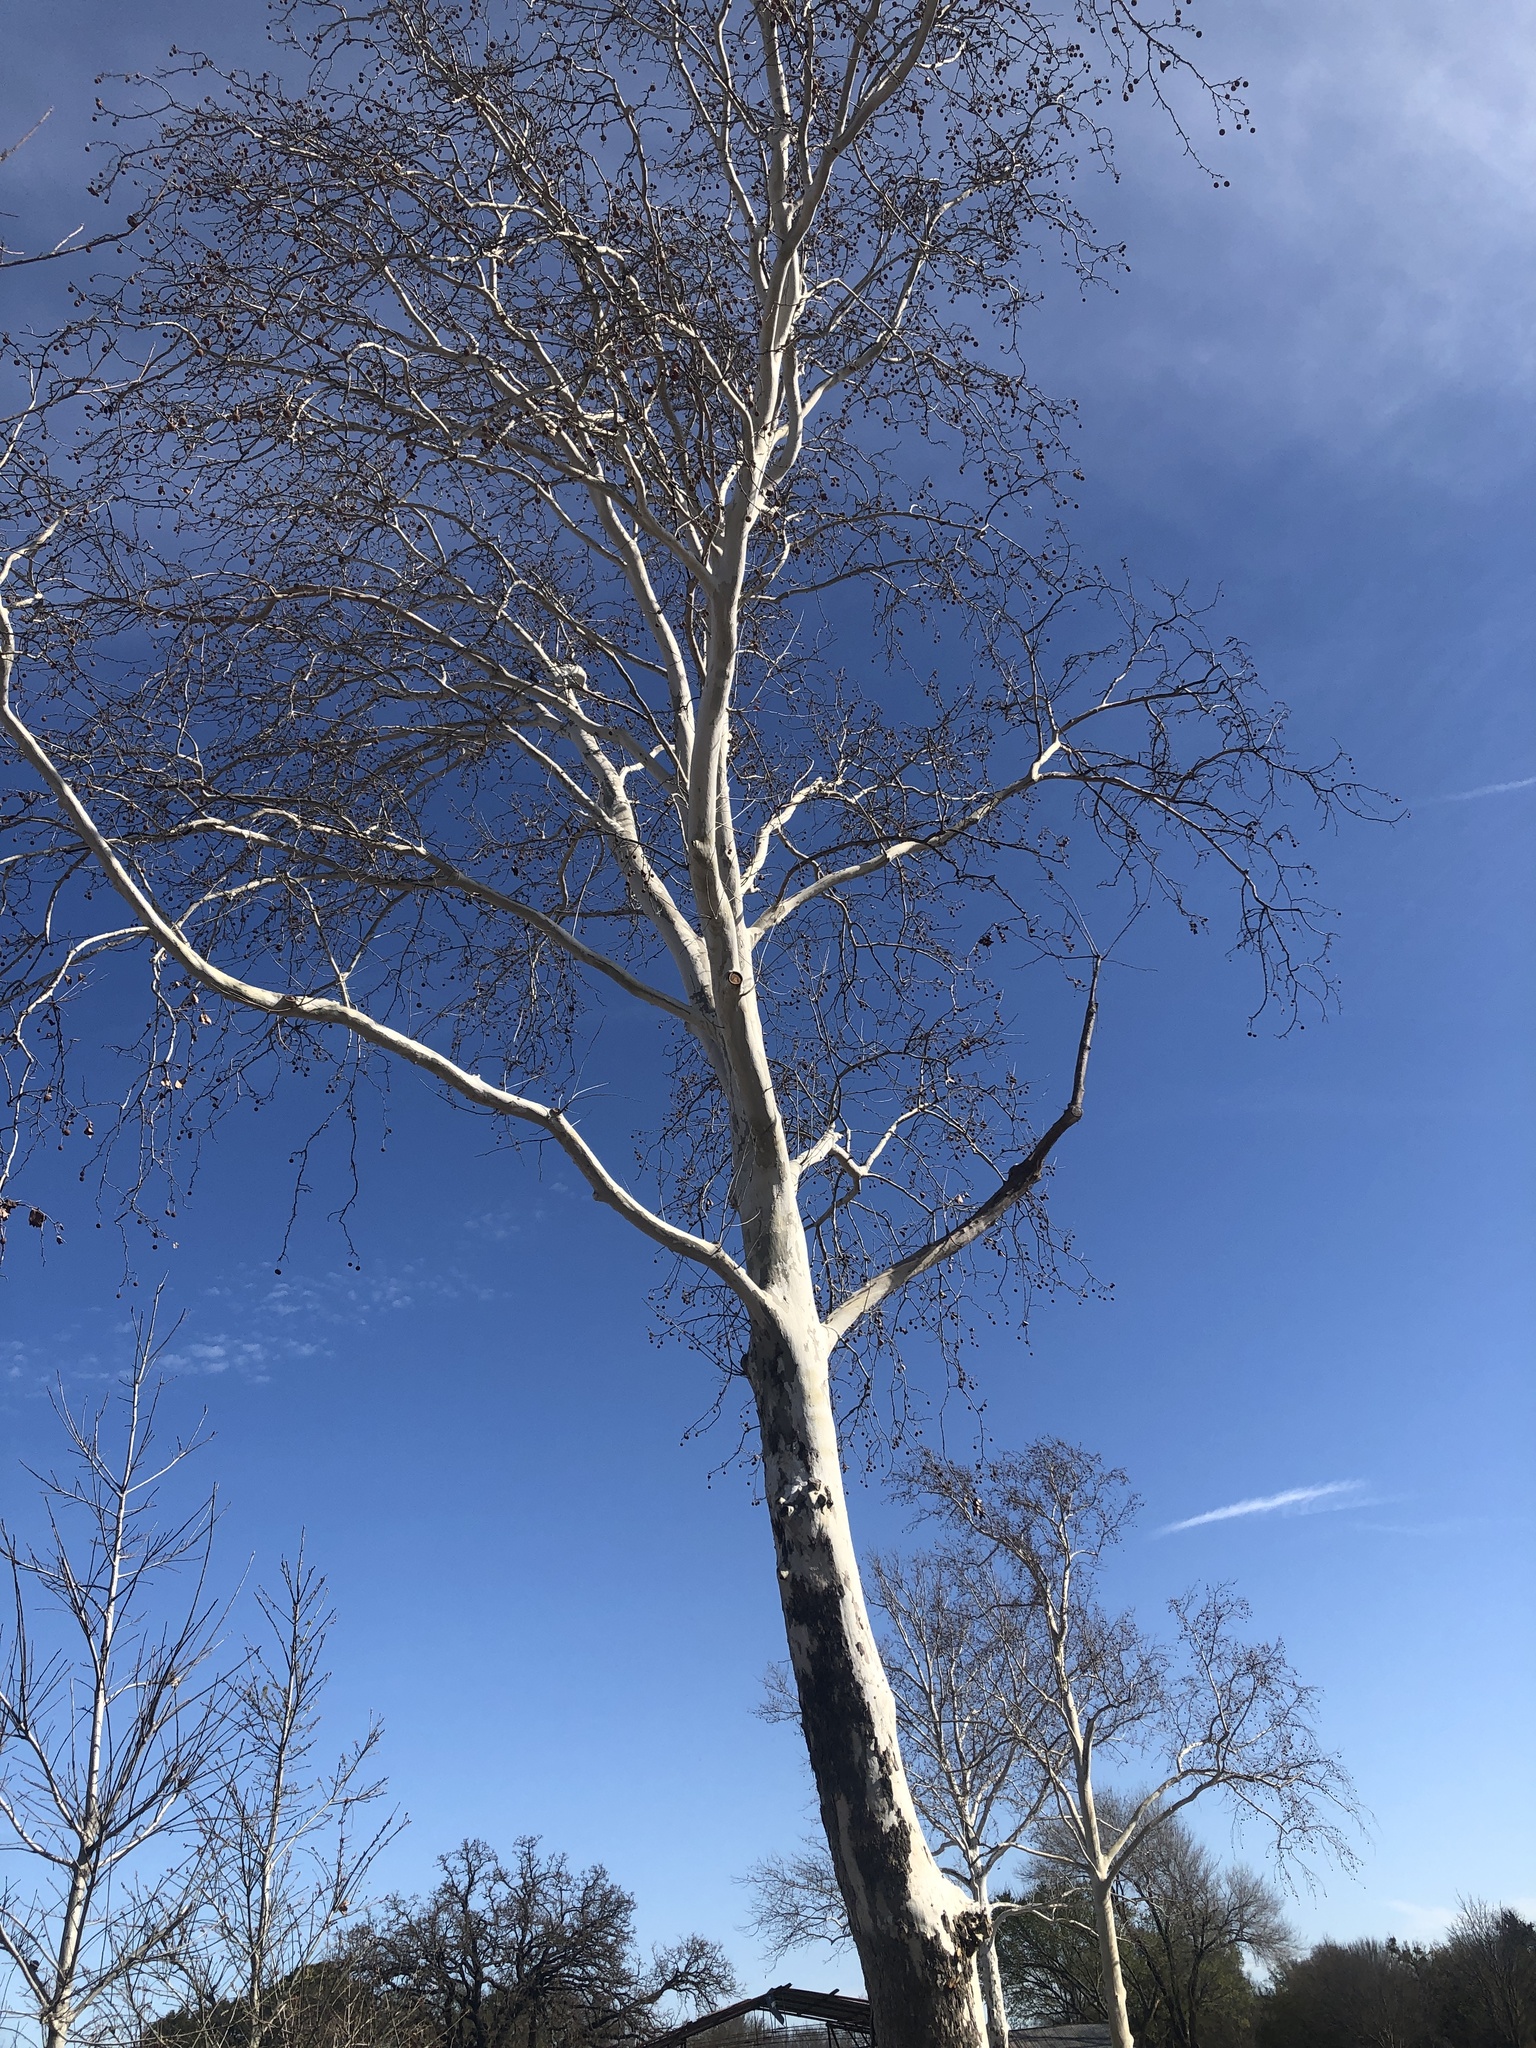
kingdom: Plantae
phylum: Tracheophyta
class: Magnoliopsida
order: Proteales
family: Platanaceae
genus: Platanus
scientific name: Platanus occidentalis
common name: American sycamore
